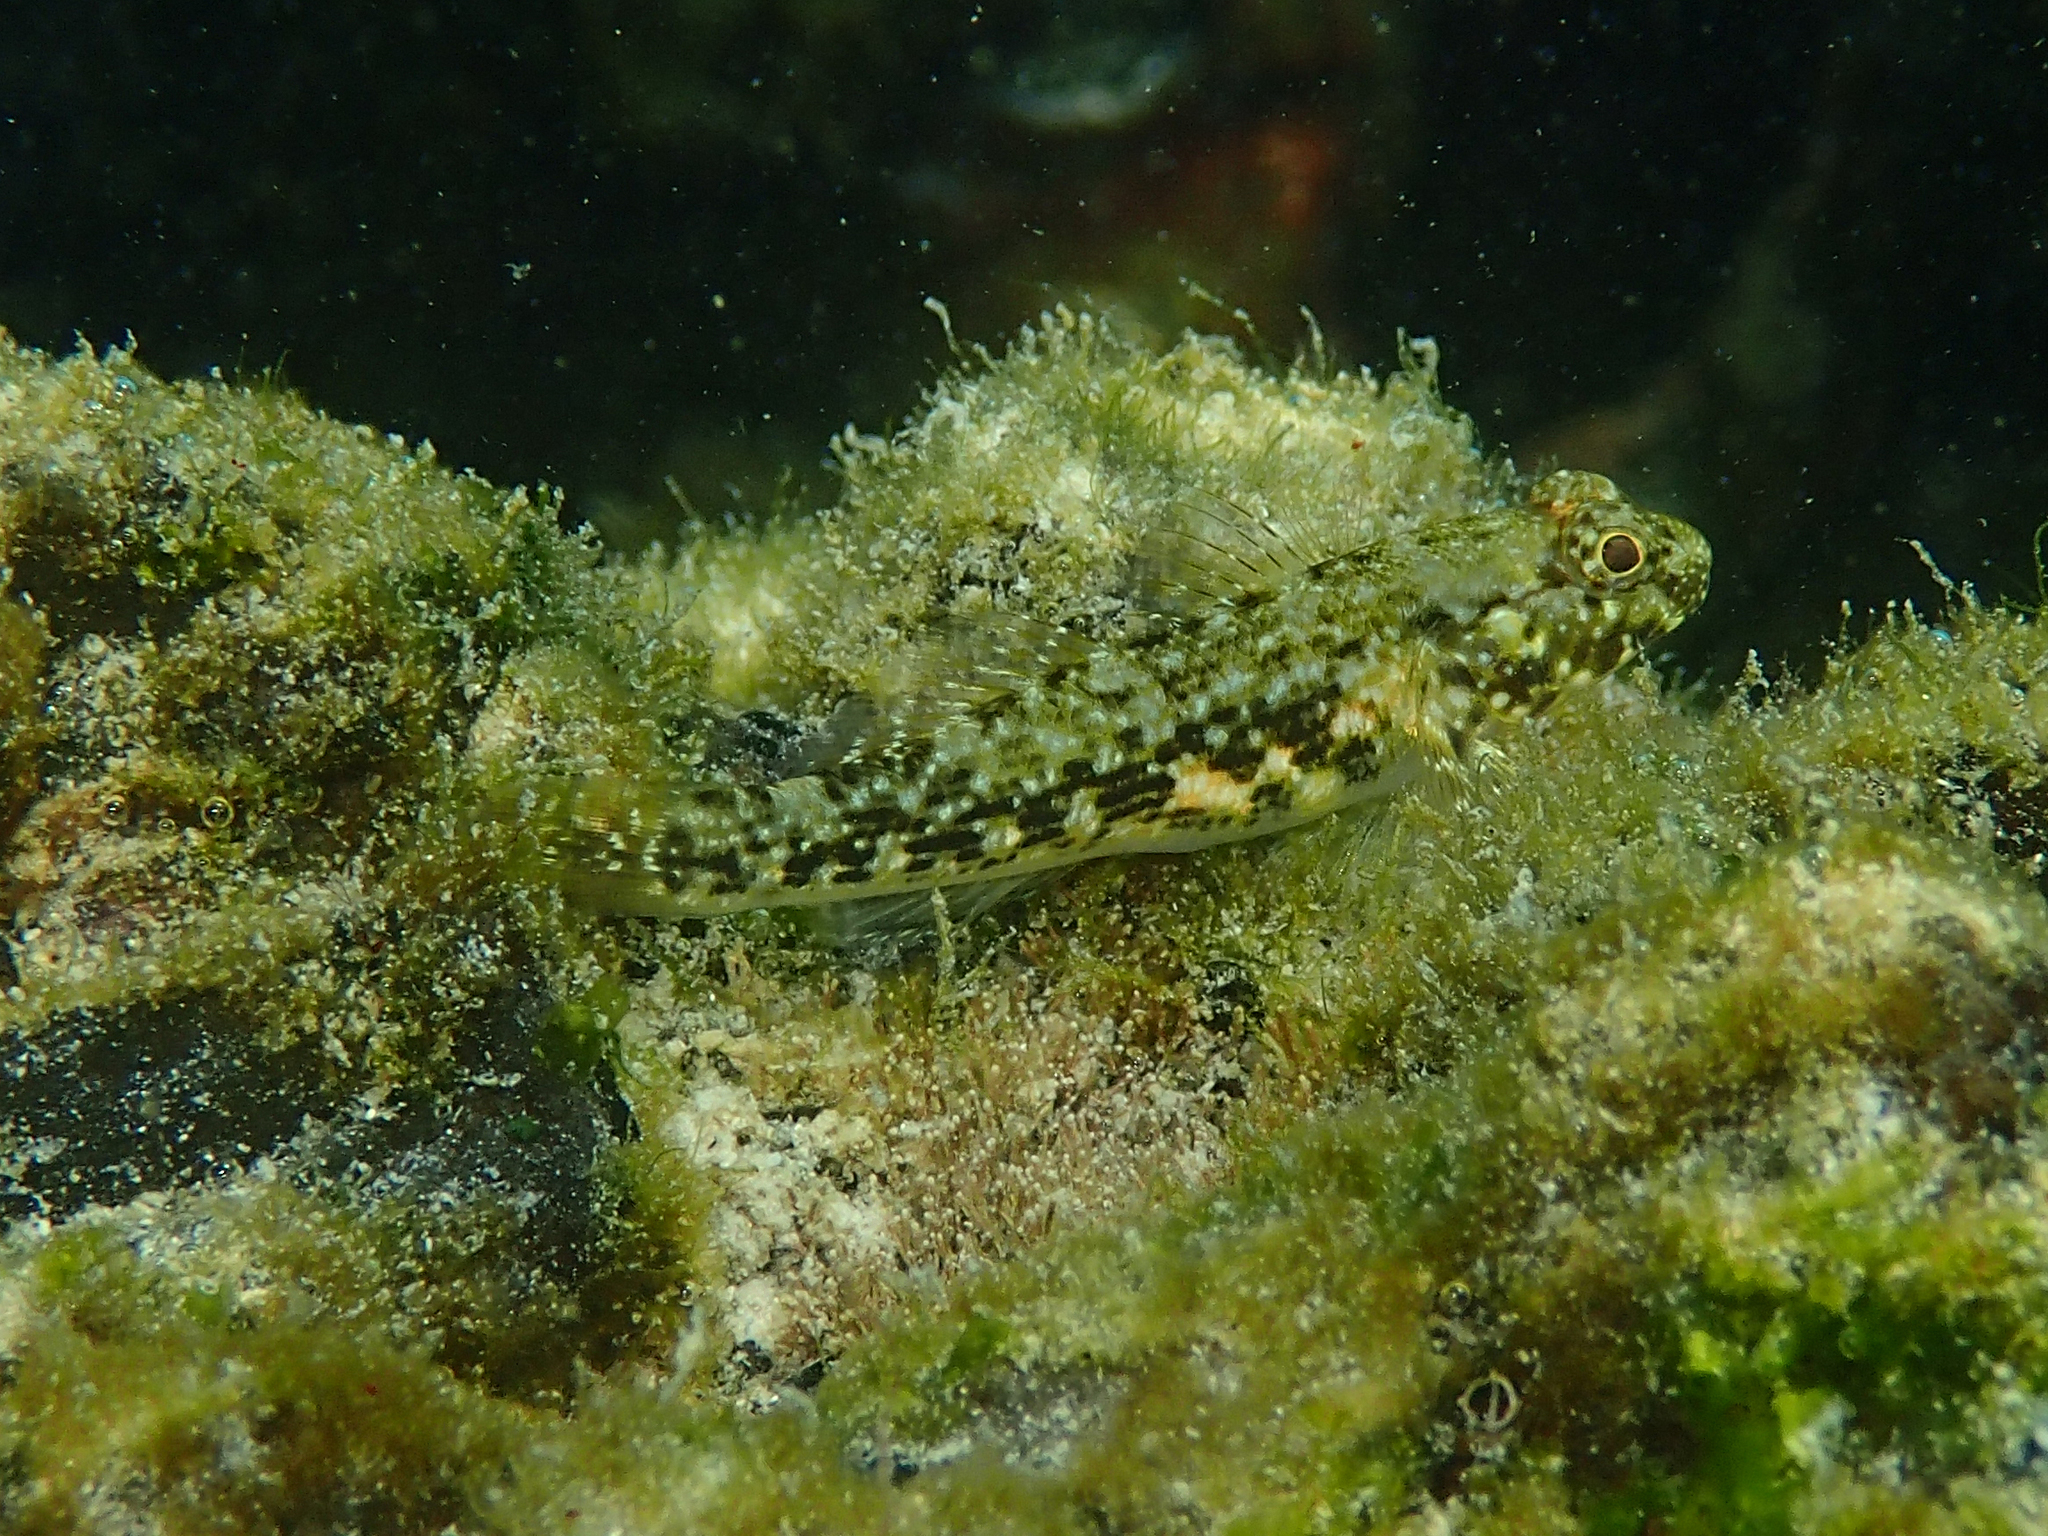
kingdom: Animalia
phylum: Chordata
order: Perciformes
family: Gobiidae
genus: Bathygobius
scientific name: Bathygobius lineatus
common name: Southern frillfin
